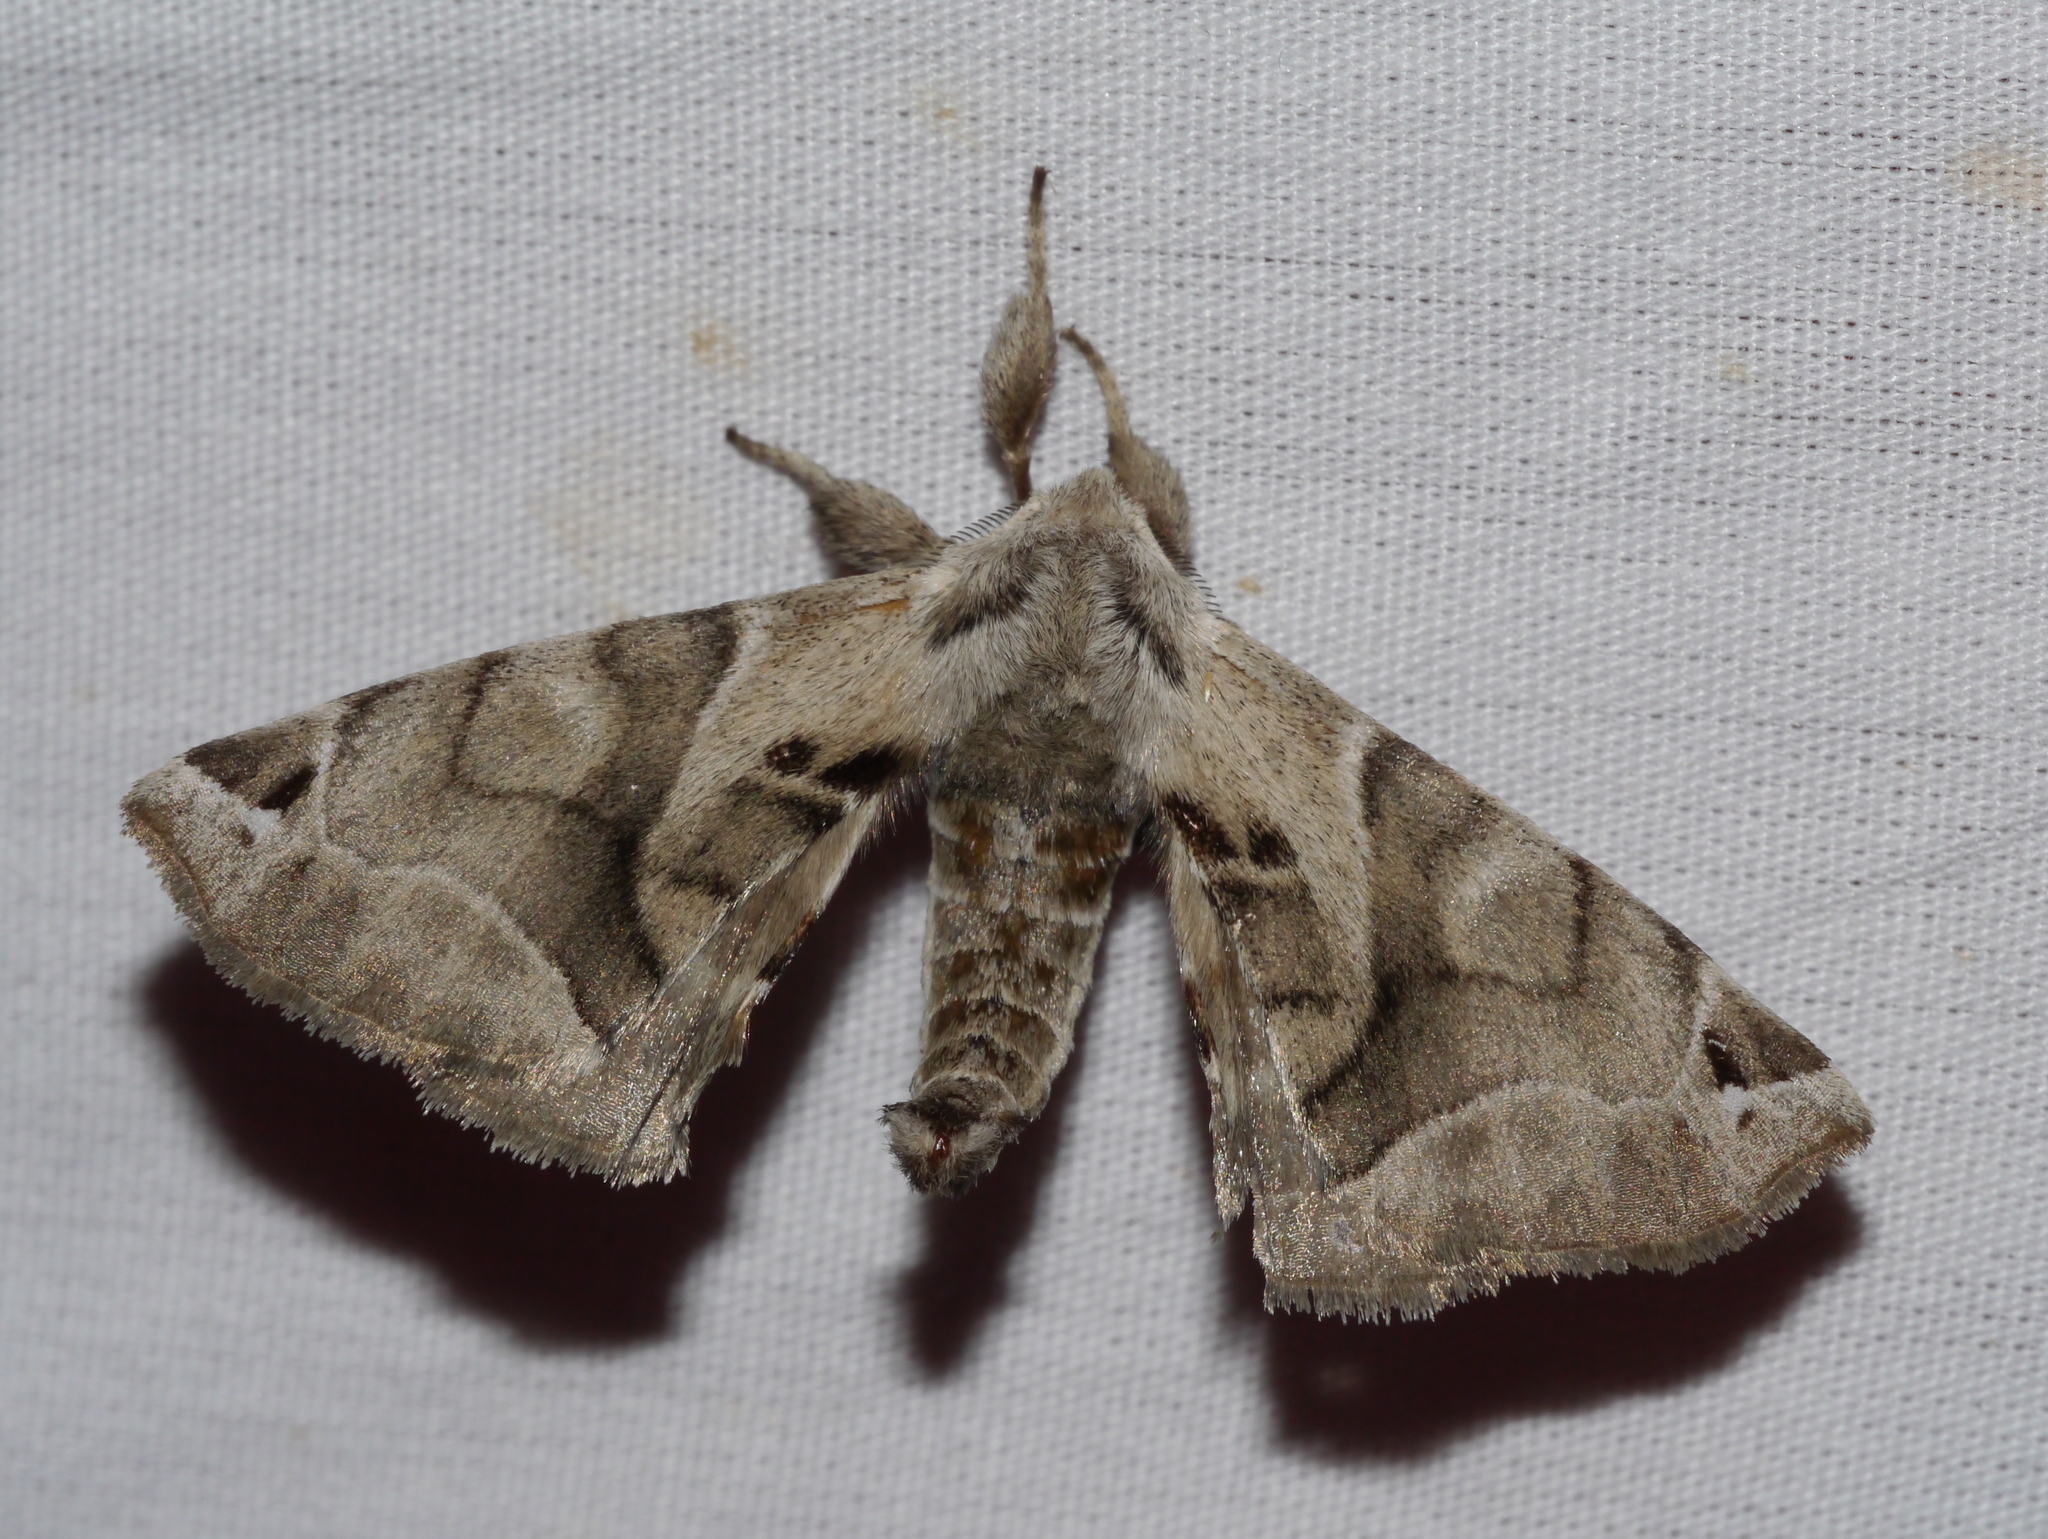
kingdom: Animalia
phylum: Arthropoda
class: Insecta
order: Lepidoptera
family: Apatelodidae
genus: Hygrochroa
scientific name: Hygrochroa Apatelodes pudefacta
